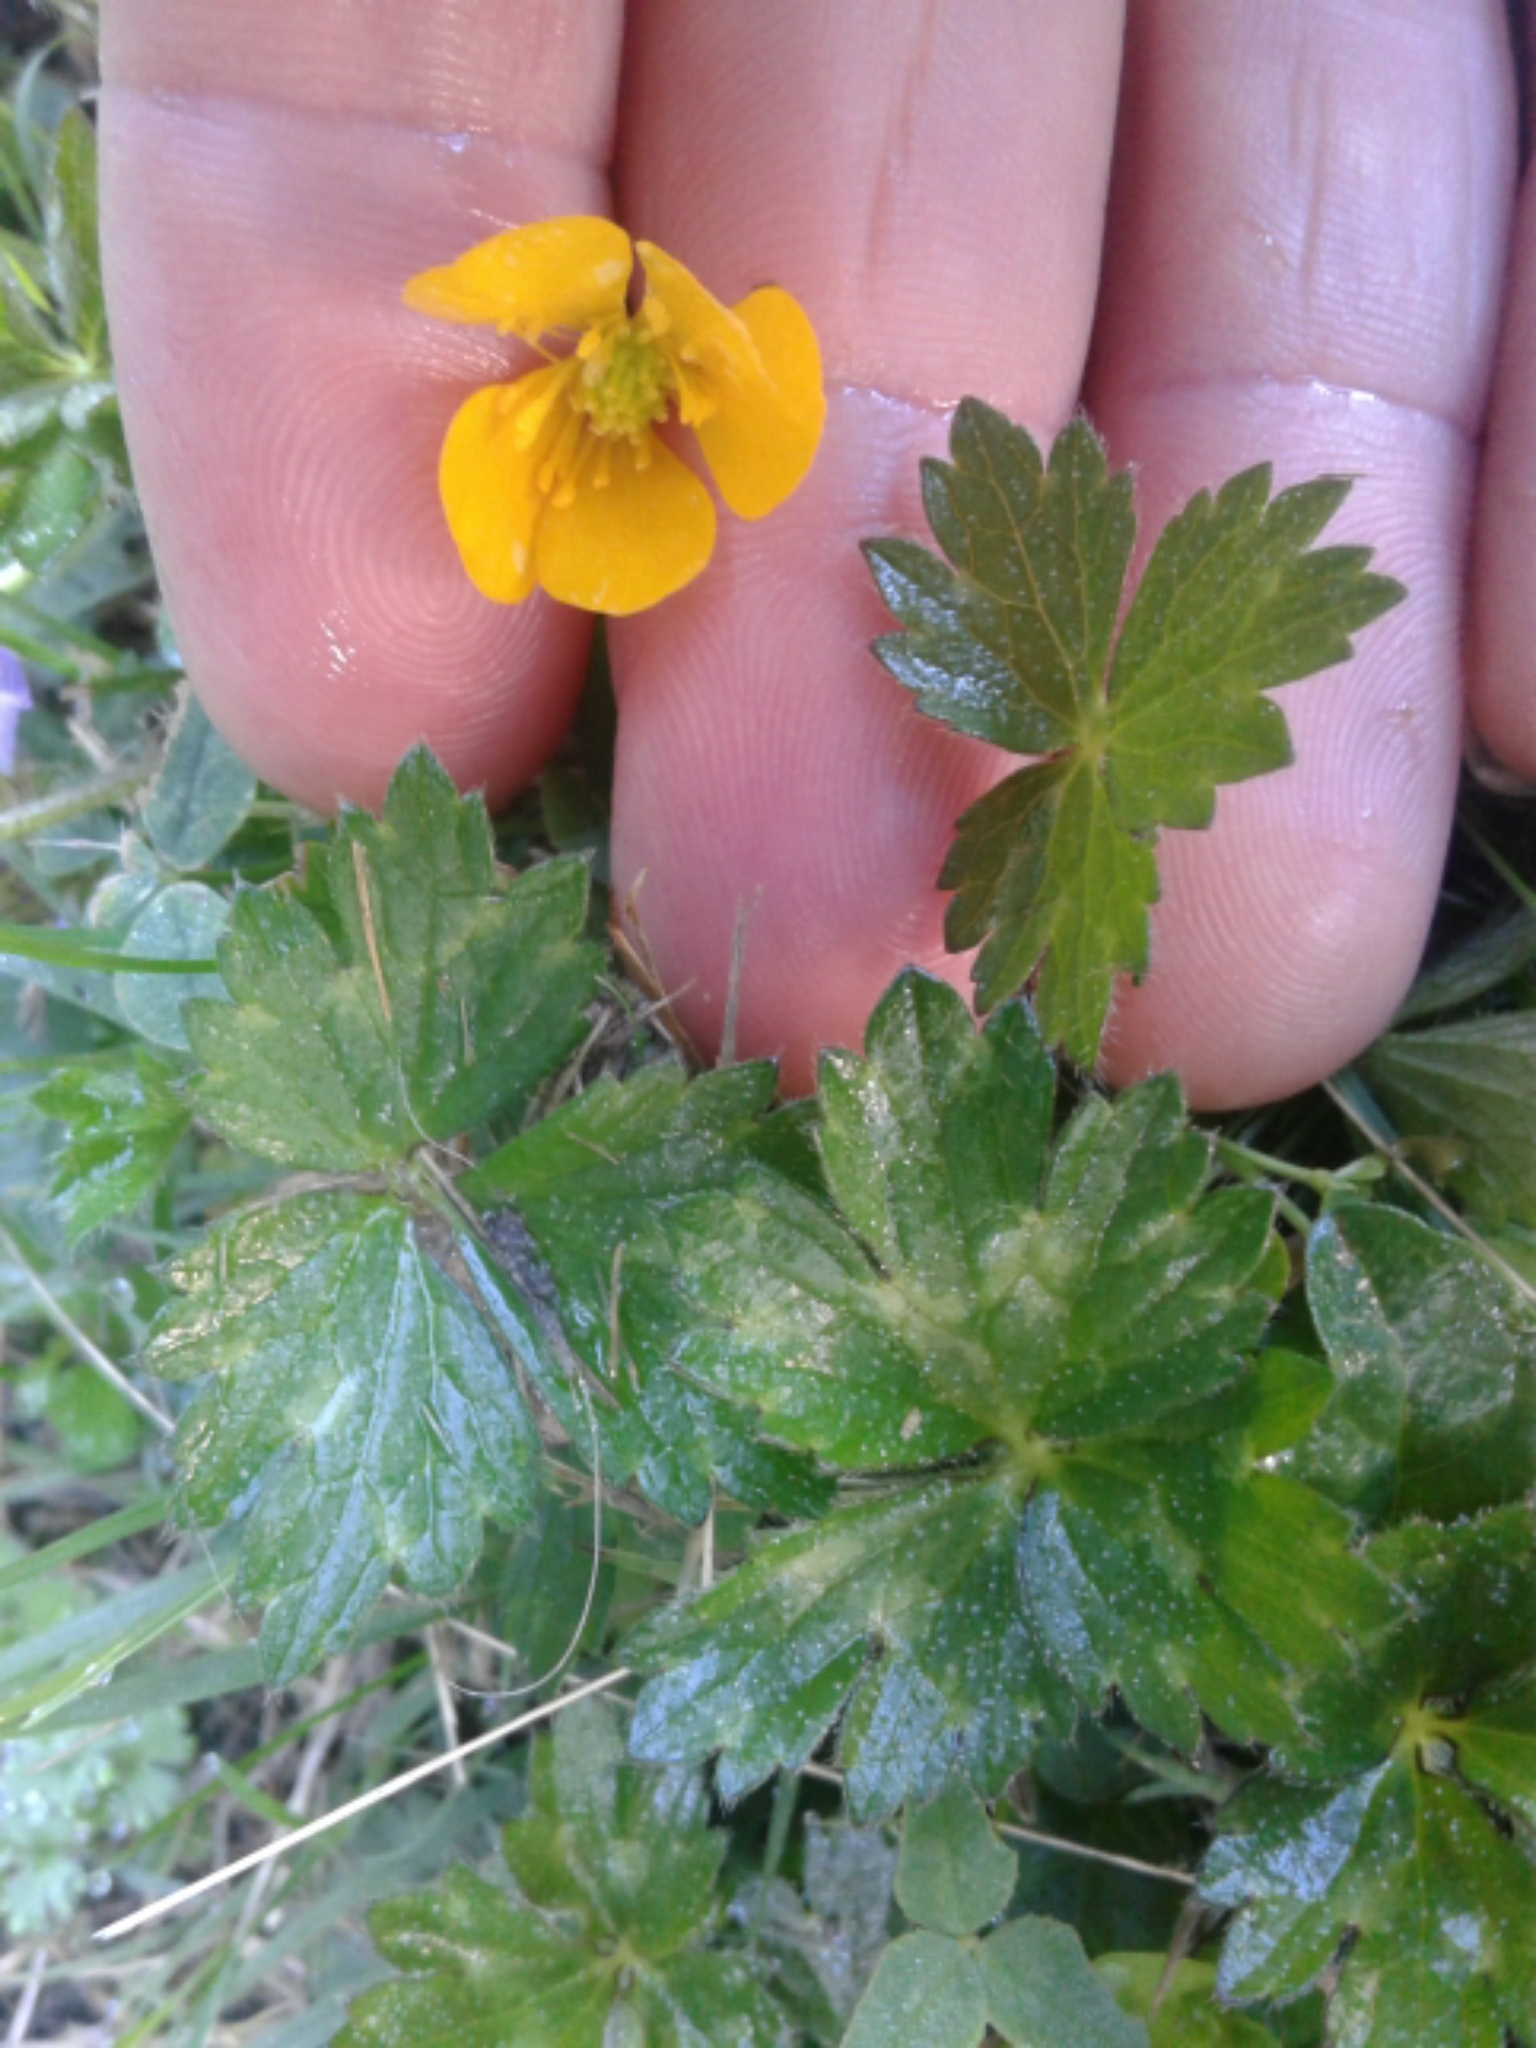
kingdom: Plantae
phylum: Tracheophyta
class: Magnoliopsida
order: Ranunculales
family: Ranunculaceae
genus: Ranunculus
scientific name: Ranunculus repens
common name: Creeping buttercup
